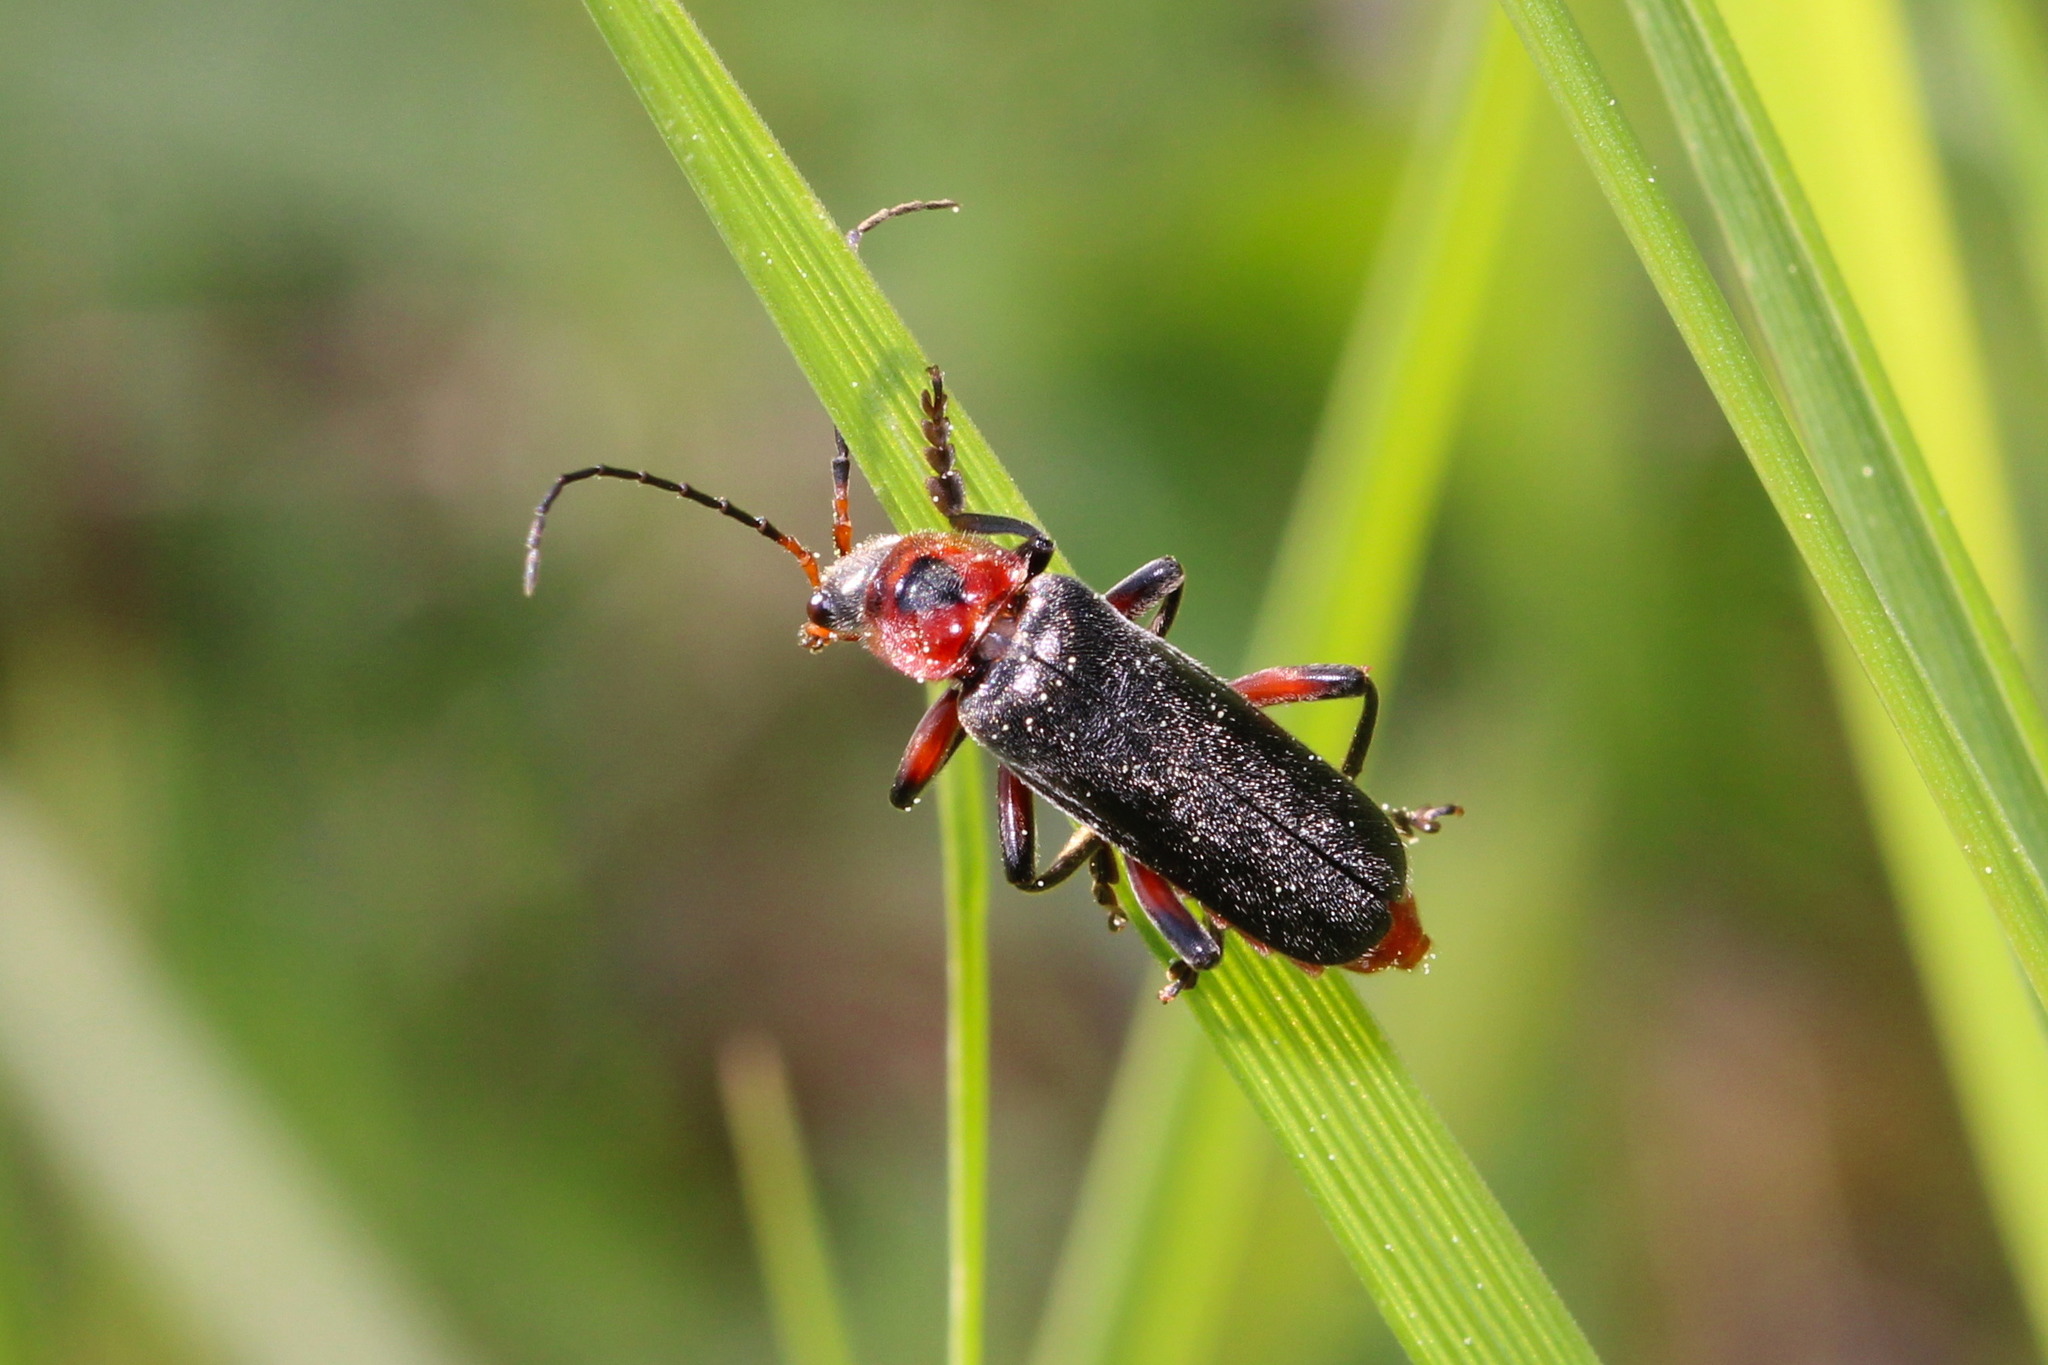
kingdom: Animalia
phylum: Arthropoda
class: Insecta
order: Coleoptera
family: Cantharidae
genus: Cantharis
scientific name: Cantharis rustica
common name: Soldier beetle
